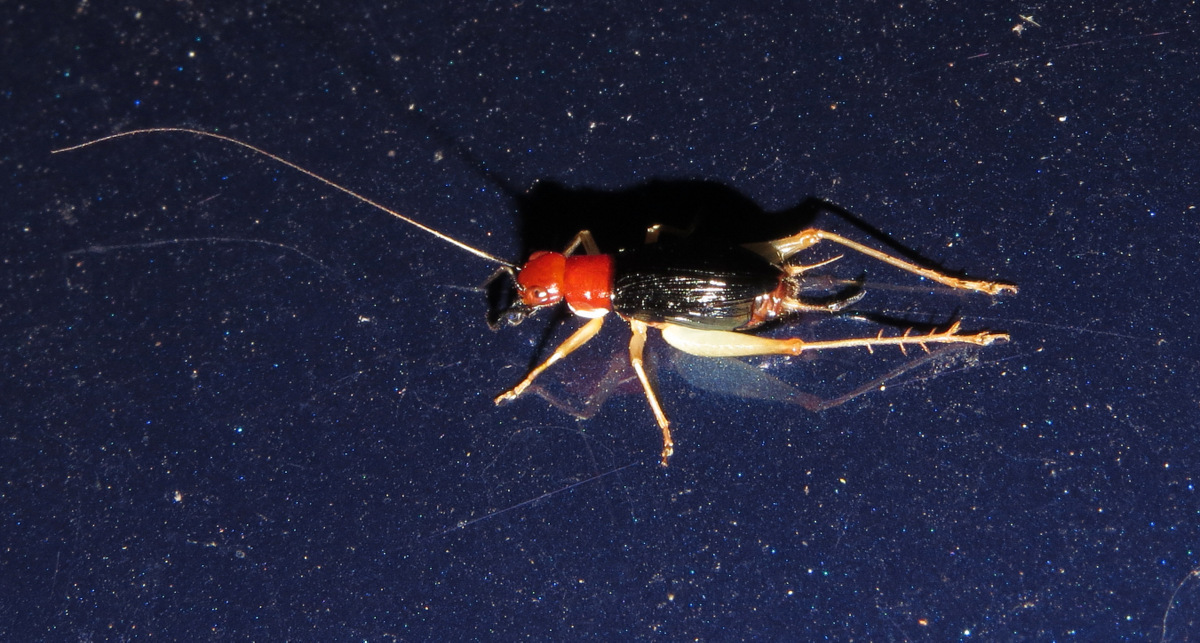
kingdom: Animalia
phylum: Arthropoda
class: Insecta
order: Orthoptera
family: Trigonidiidae
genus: Phyllopalpus
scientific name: Phyllopalpus pulchellus
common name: Handsome trig
